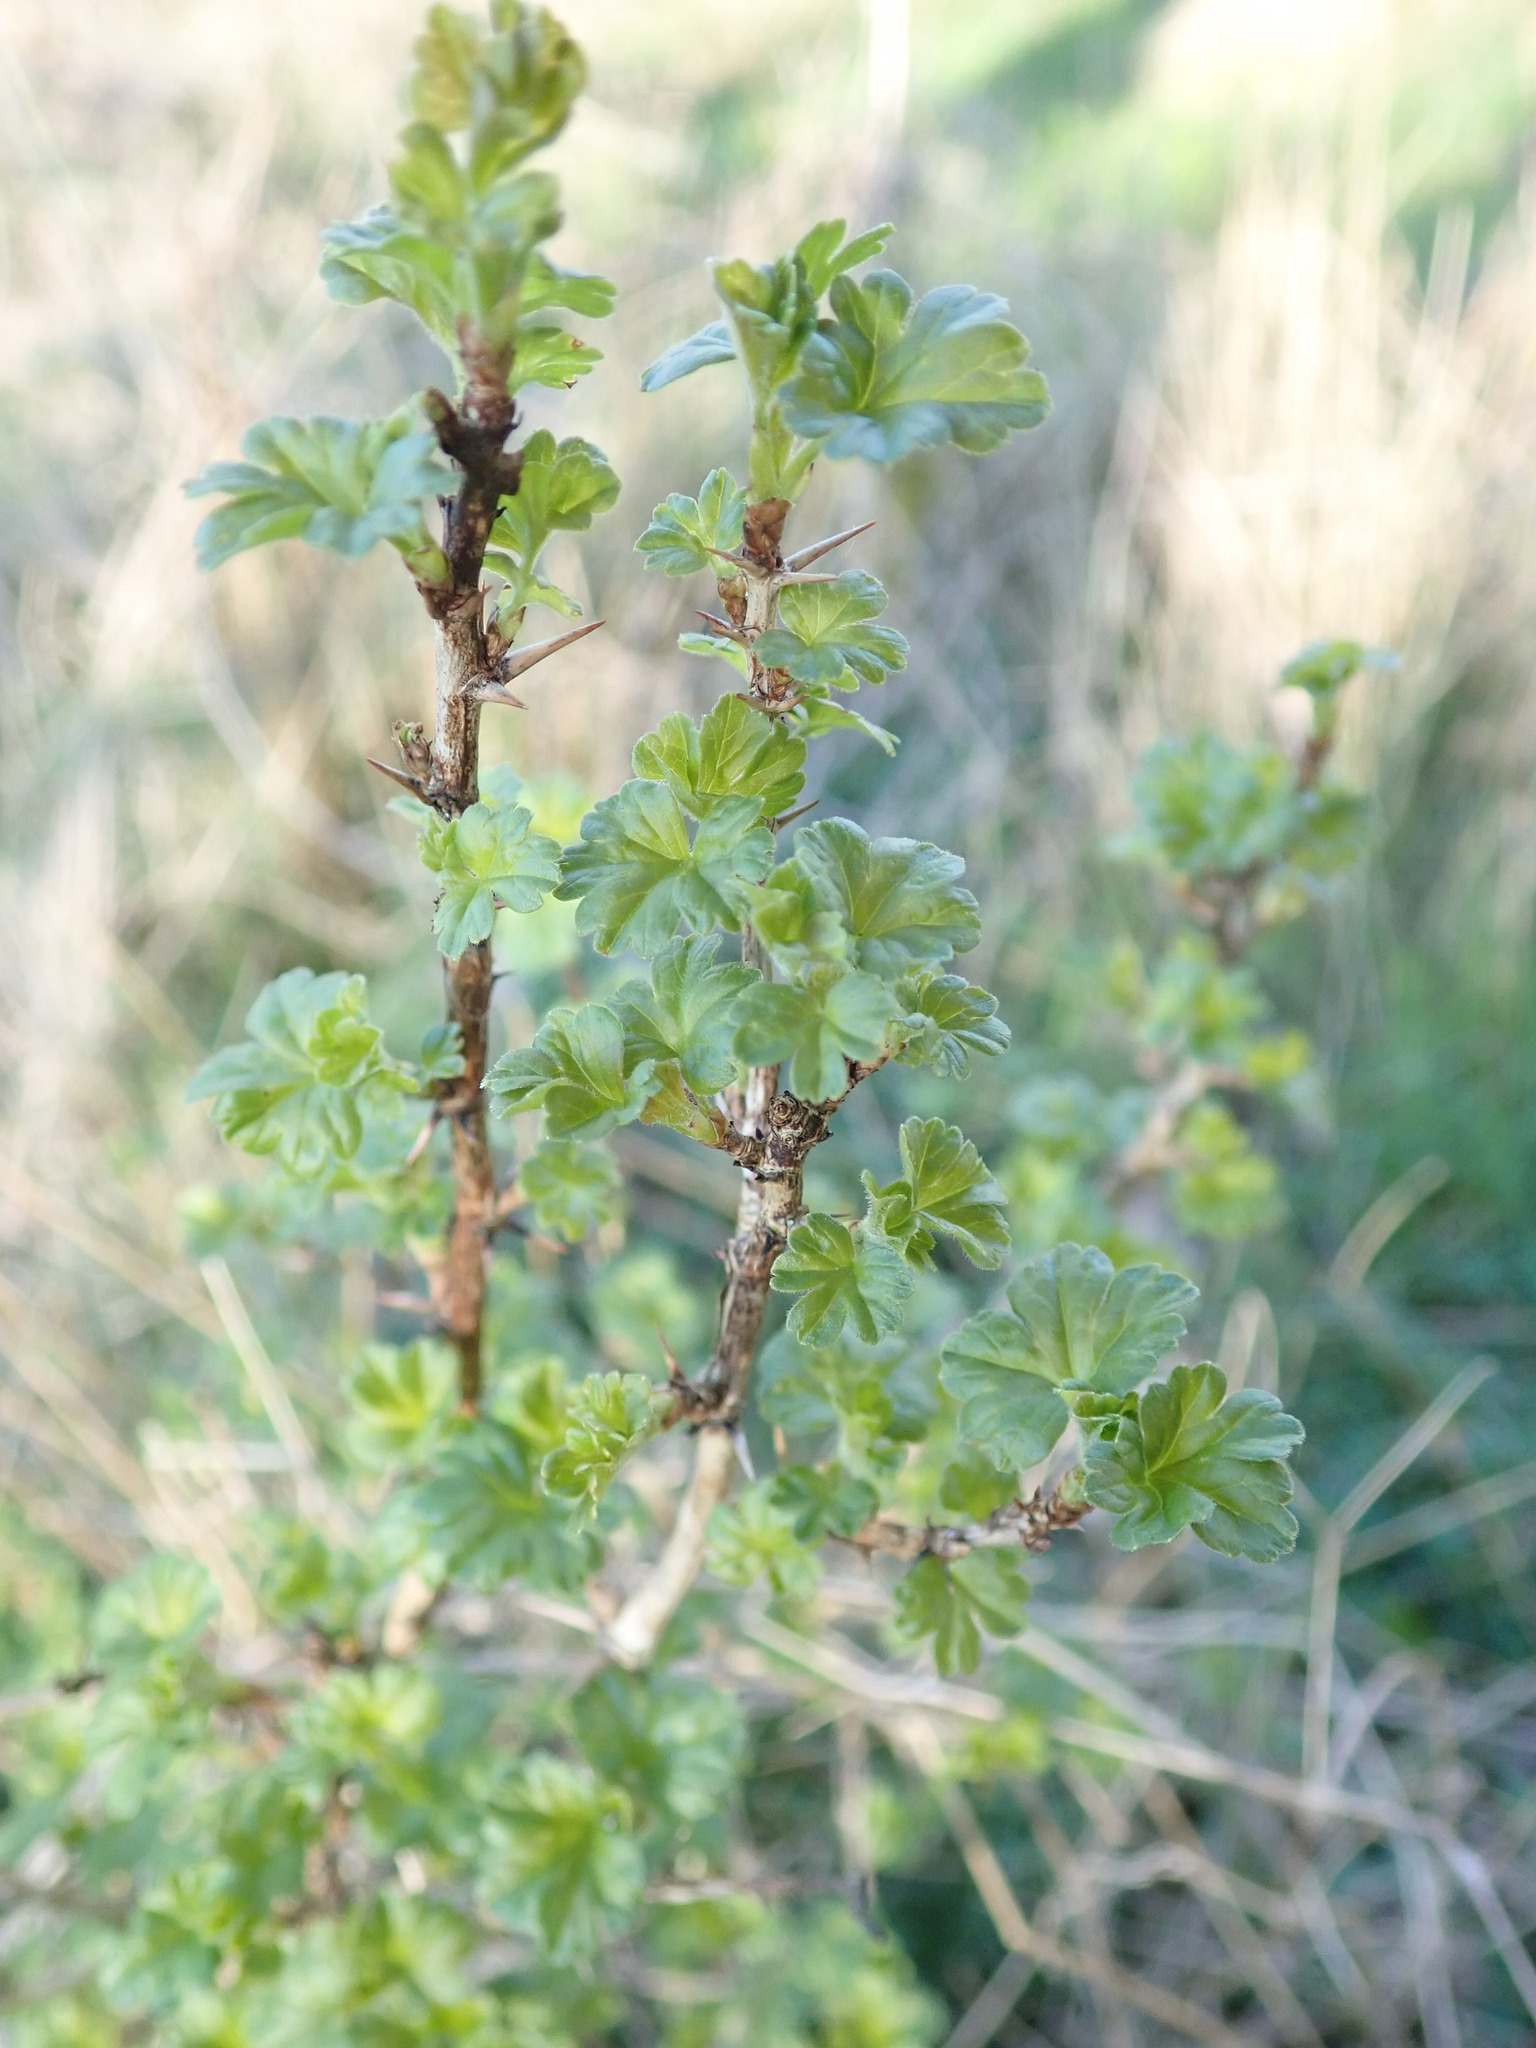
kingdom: Plantae
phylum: Tracheophyta
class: Magnoliopsida
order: Saxifragales
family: Grossulariaceae
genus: Ribes
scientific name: Ribes uva-crispa
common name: Gooseberry
